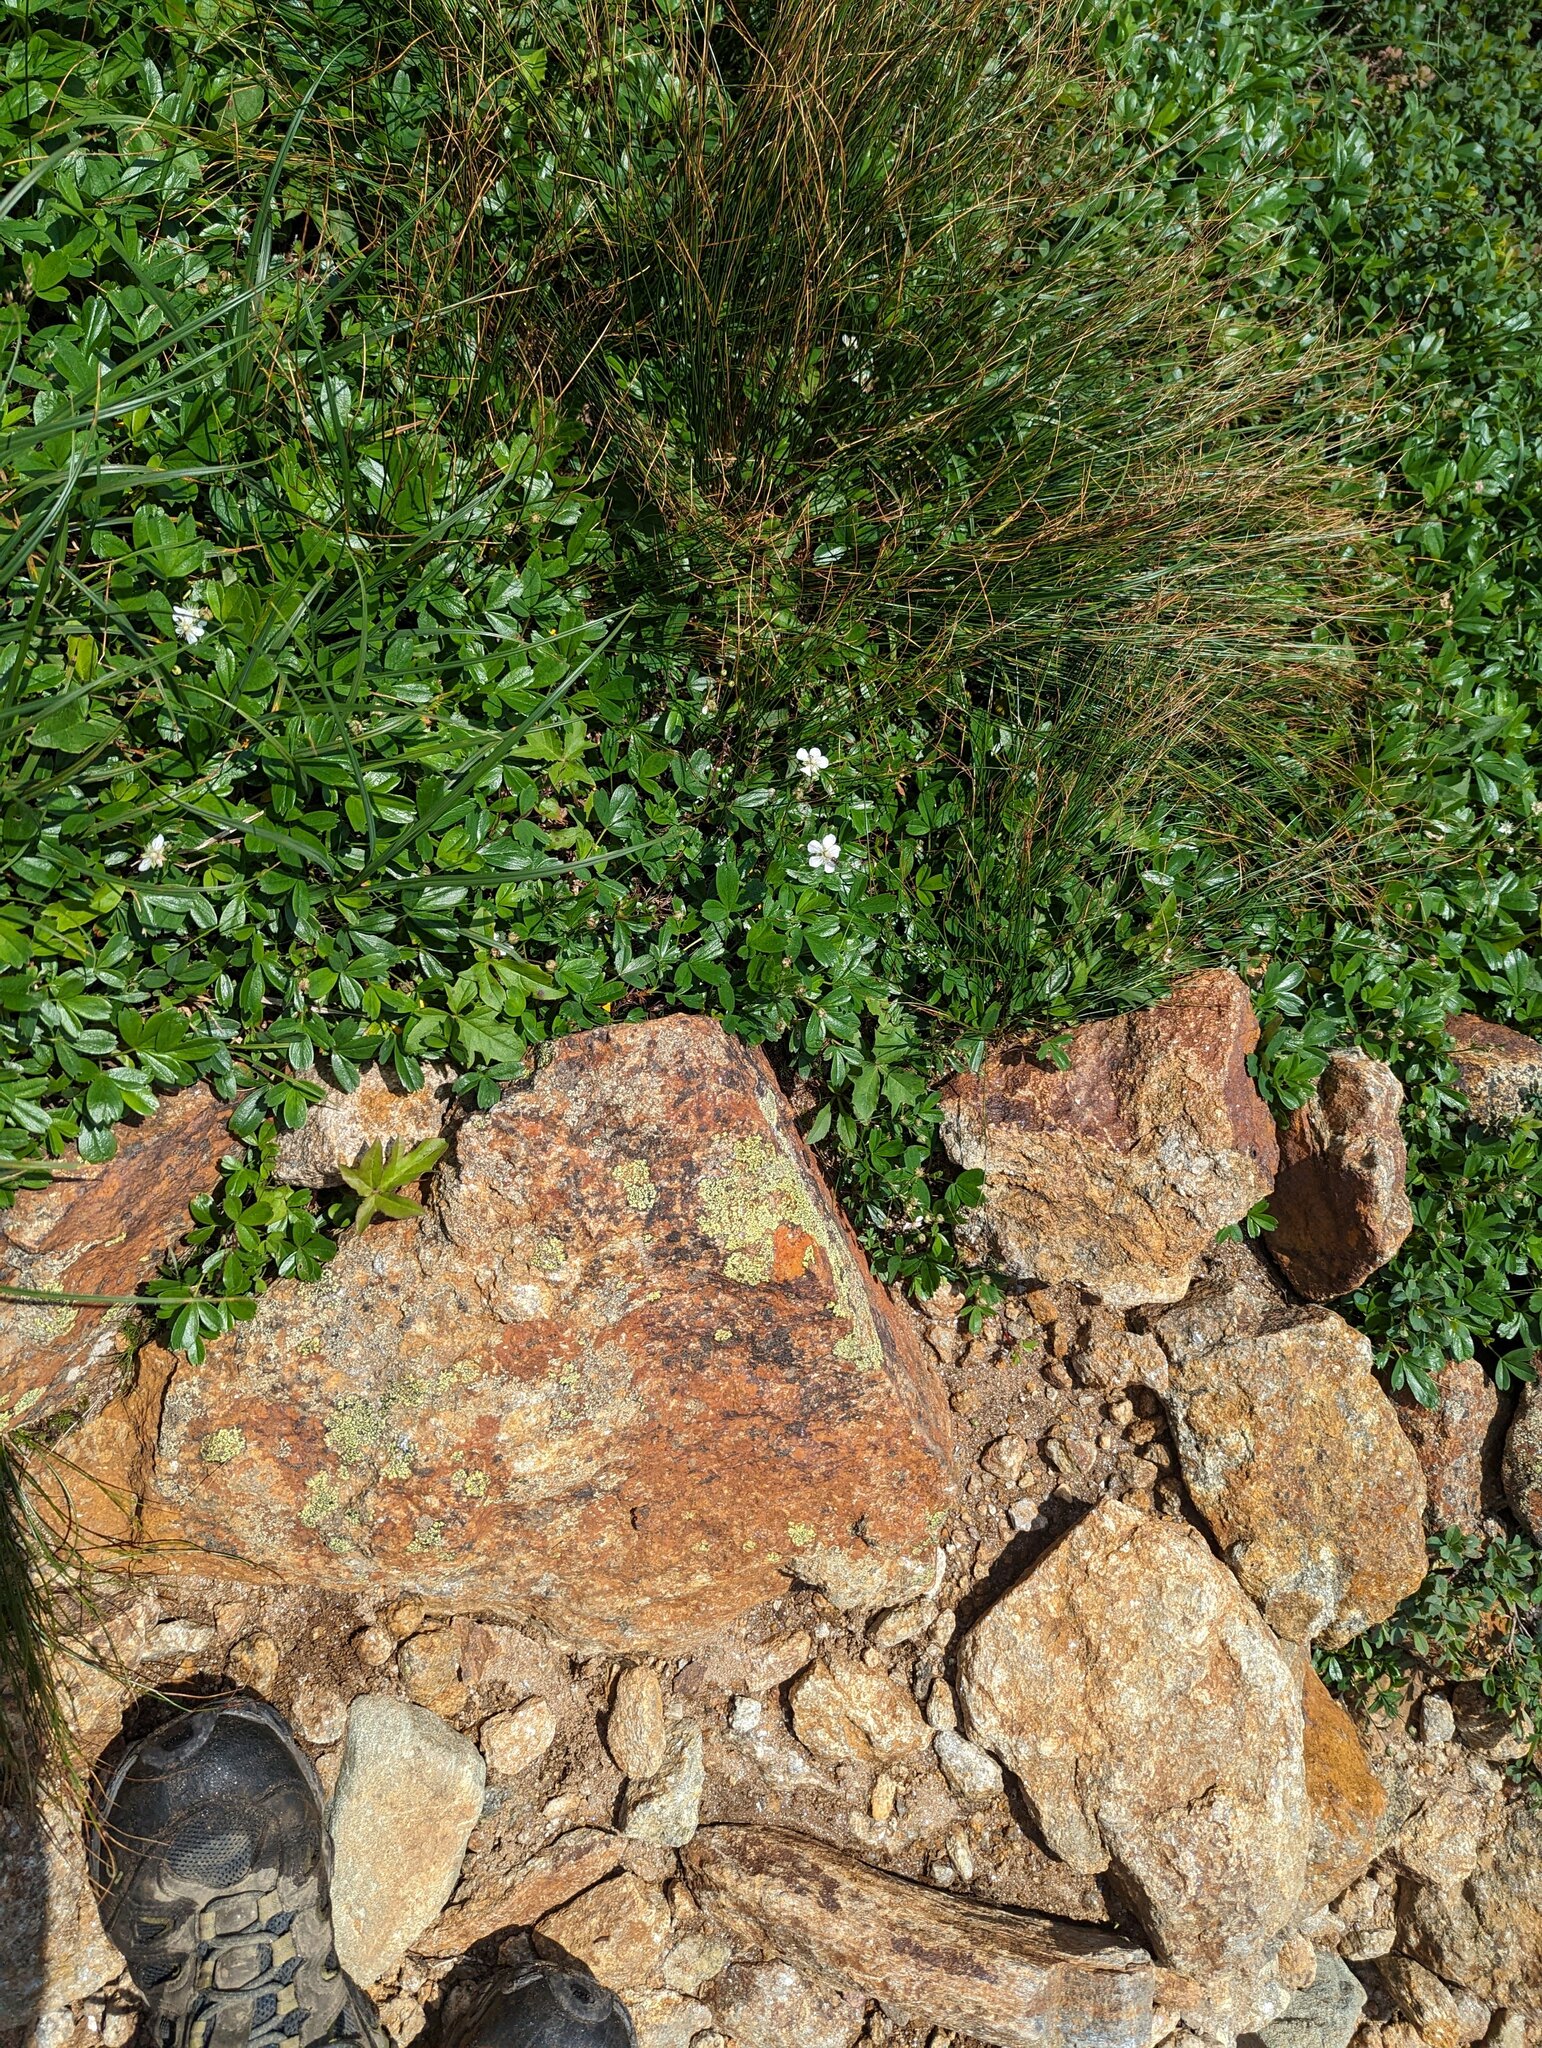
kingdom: Plantae
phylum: Tracheophyta
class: Magnoliopsida
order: Rosales
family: Rosaceae
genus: Sibbaldia
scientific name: Sibbaldia tridentata
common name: Three-toothed cinquefoil
